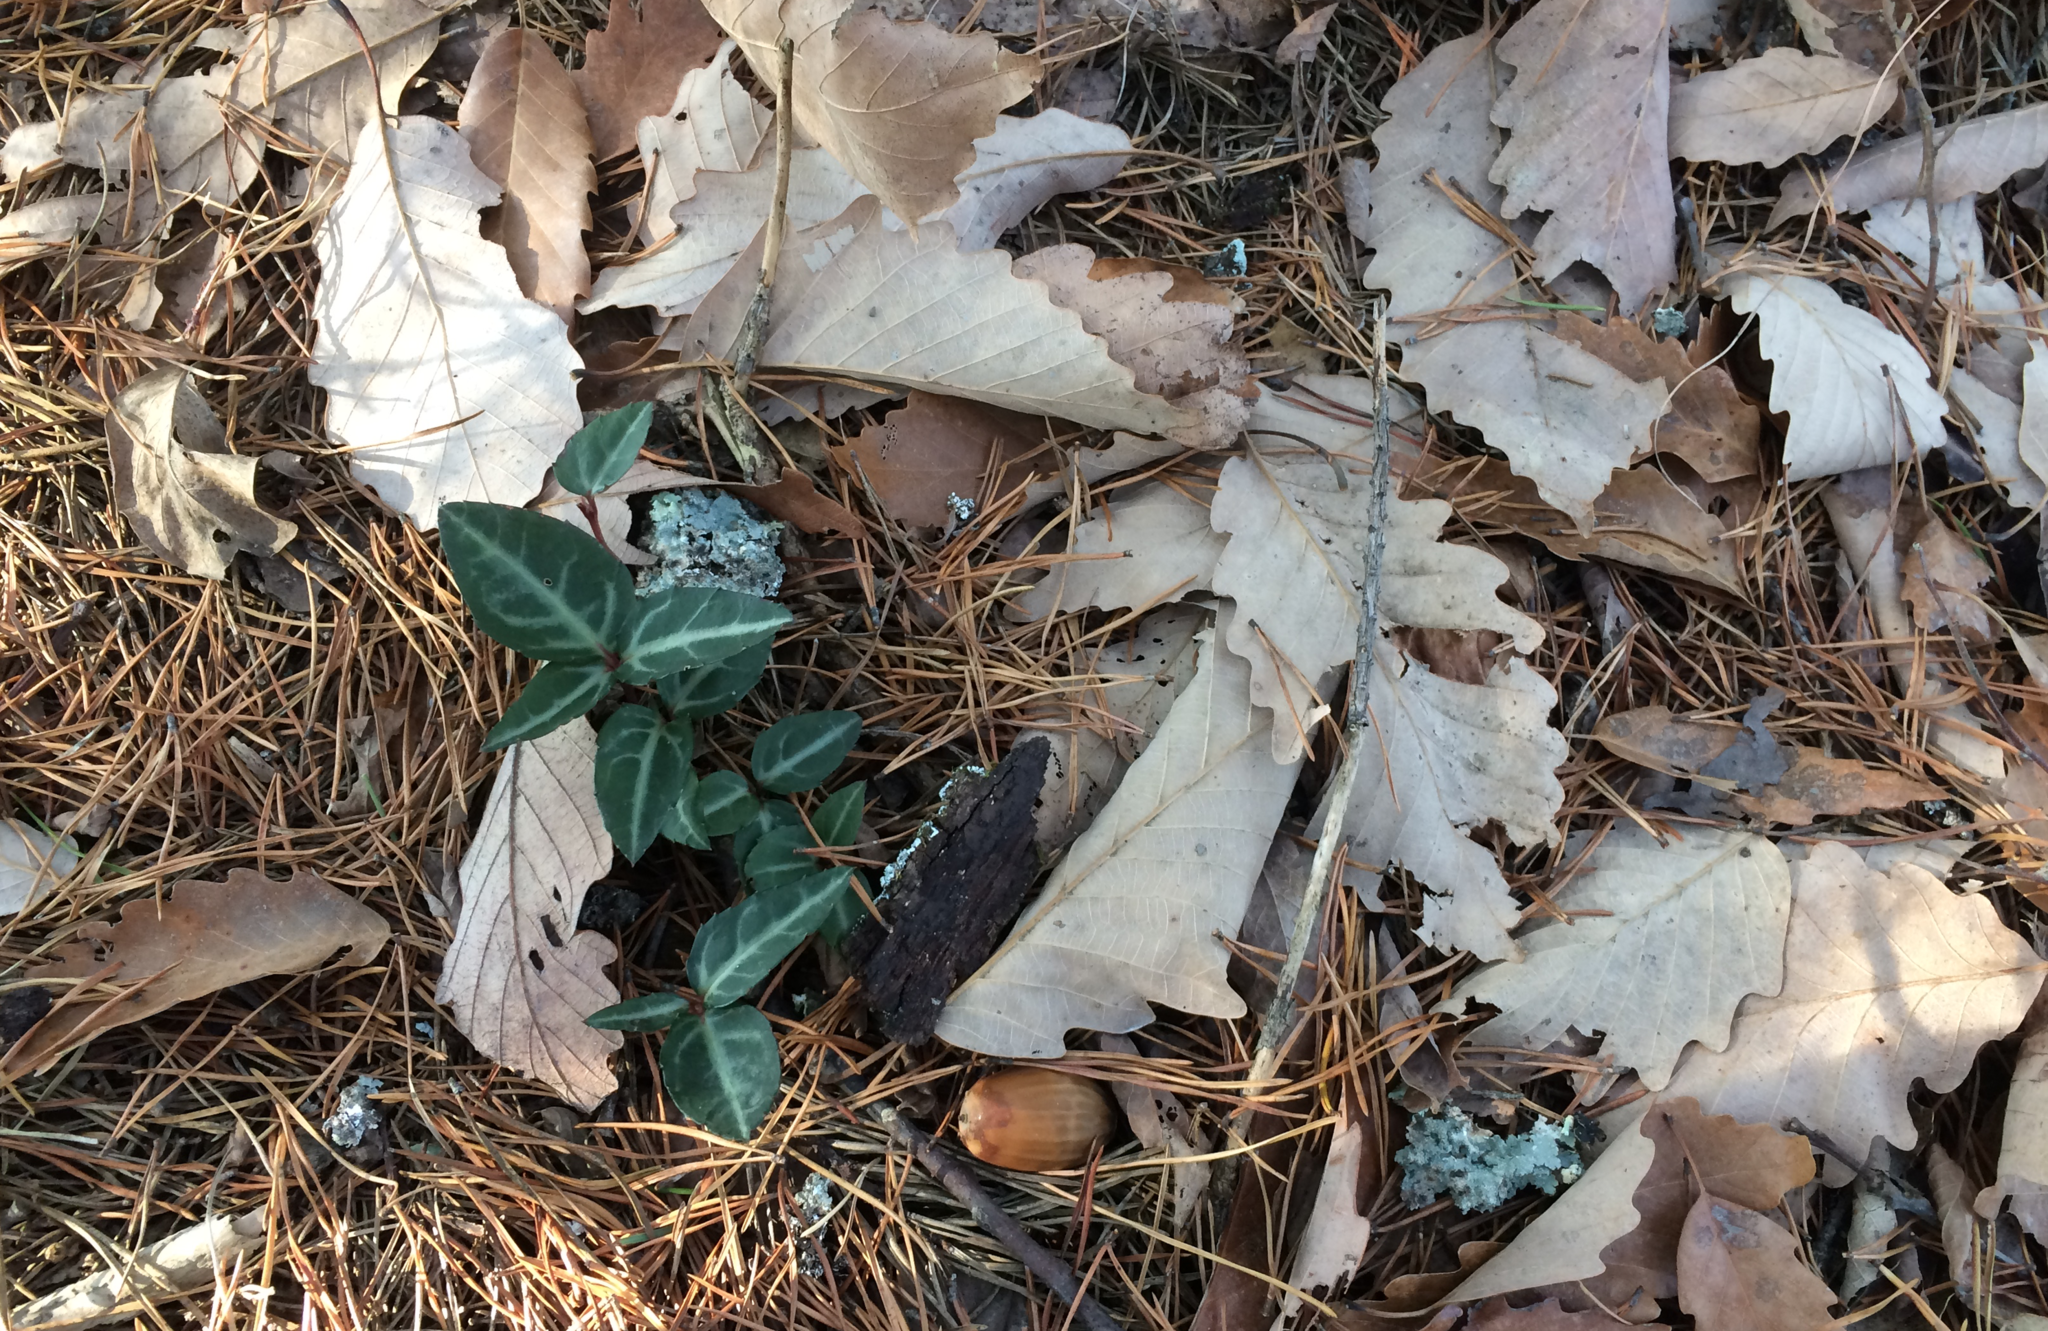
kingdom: Plantae
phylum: Tracheophyta
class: Magnoliopsida
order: Ericales
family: Ericaceae
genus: Chimaphila
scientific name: Chimaphila maculata
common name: Spotted pipsissewa
